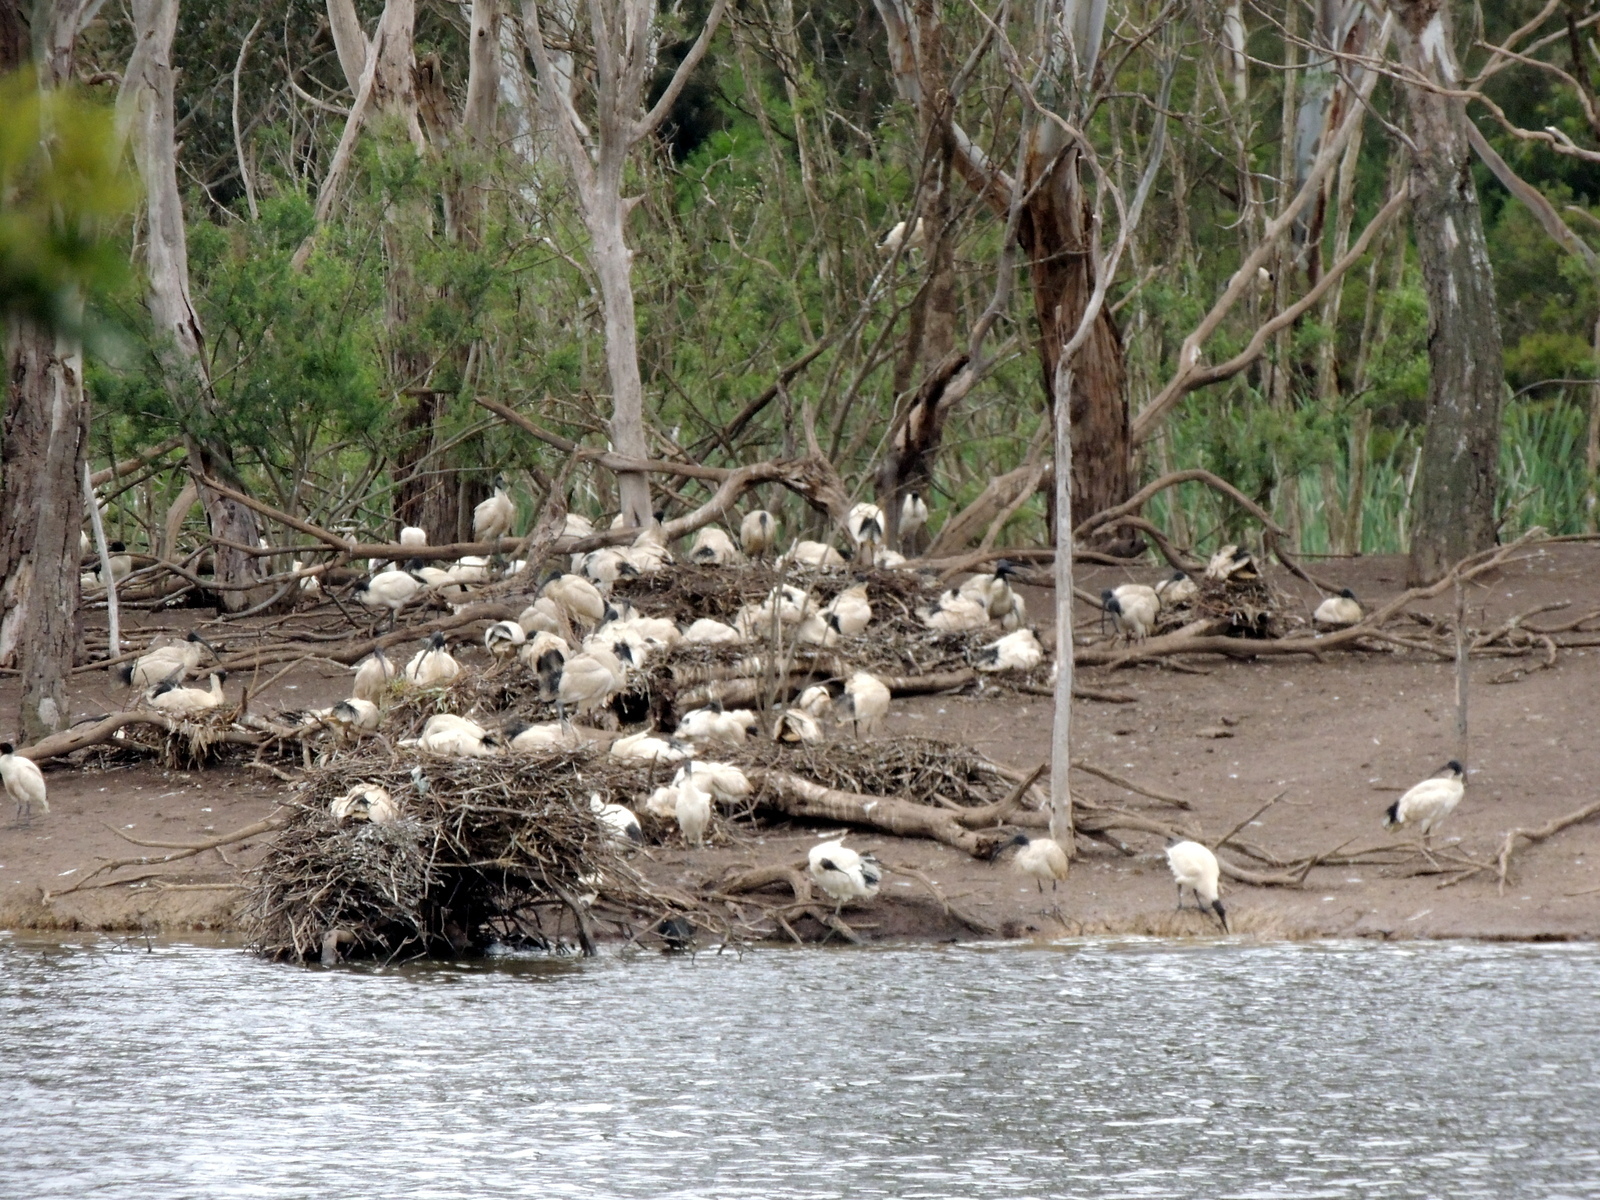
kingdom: Animalia
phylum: Chordata
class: Aves
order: Pelecaniformes
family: Threskiornithidae
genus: Threskiornis
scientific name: Threskiornis molucca
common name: Australian white ibis
